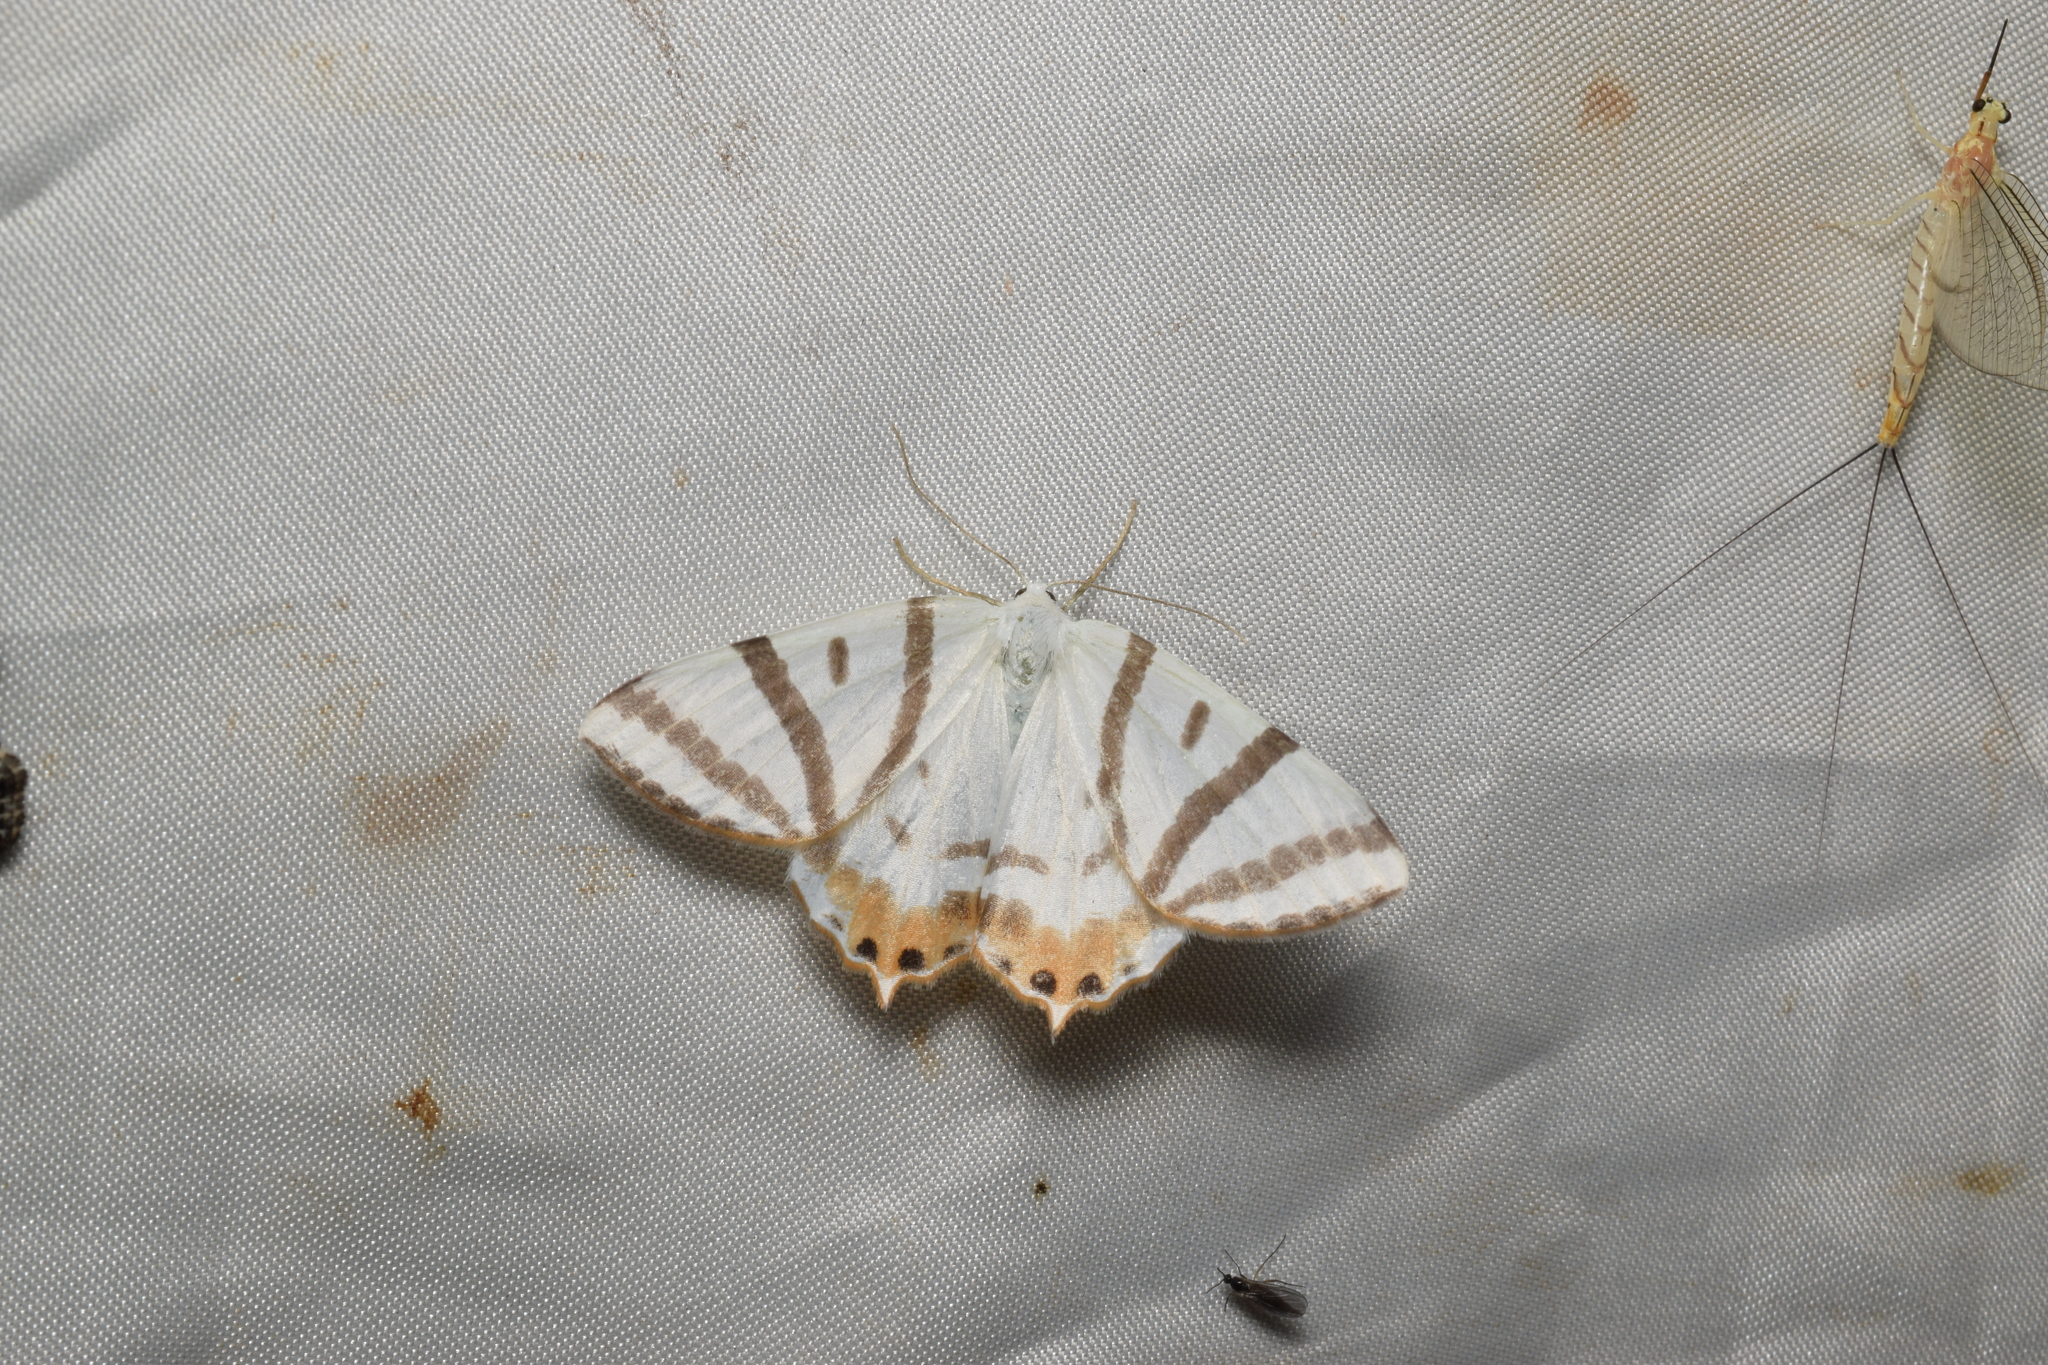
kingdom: Animalia
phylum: Arthropoda
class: Insecta
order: Lepidoptera
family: Geometridae
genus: Tristrophis
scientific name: Tristrophis veneris
